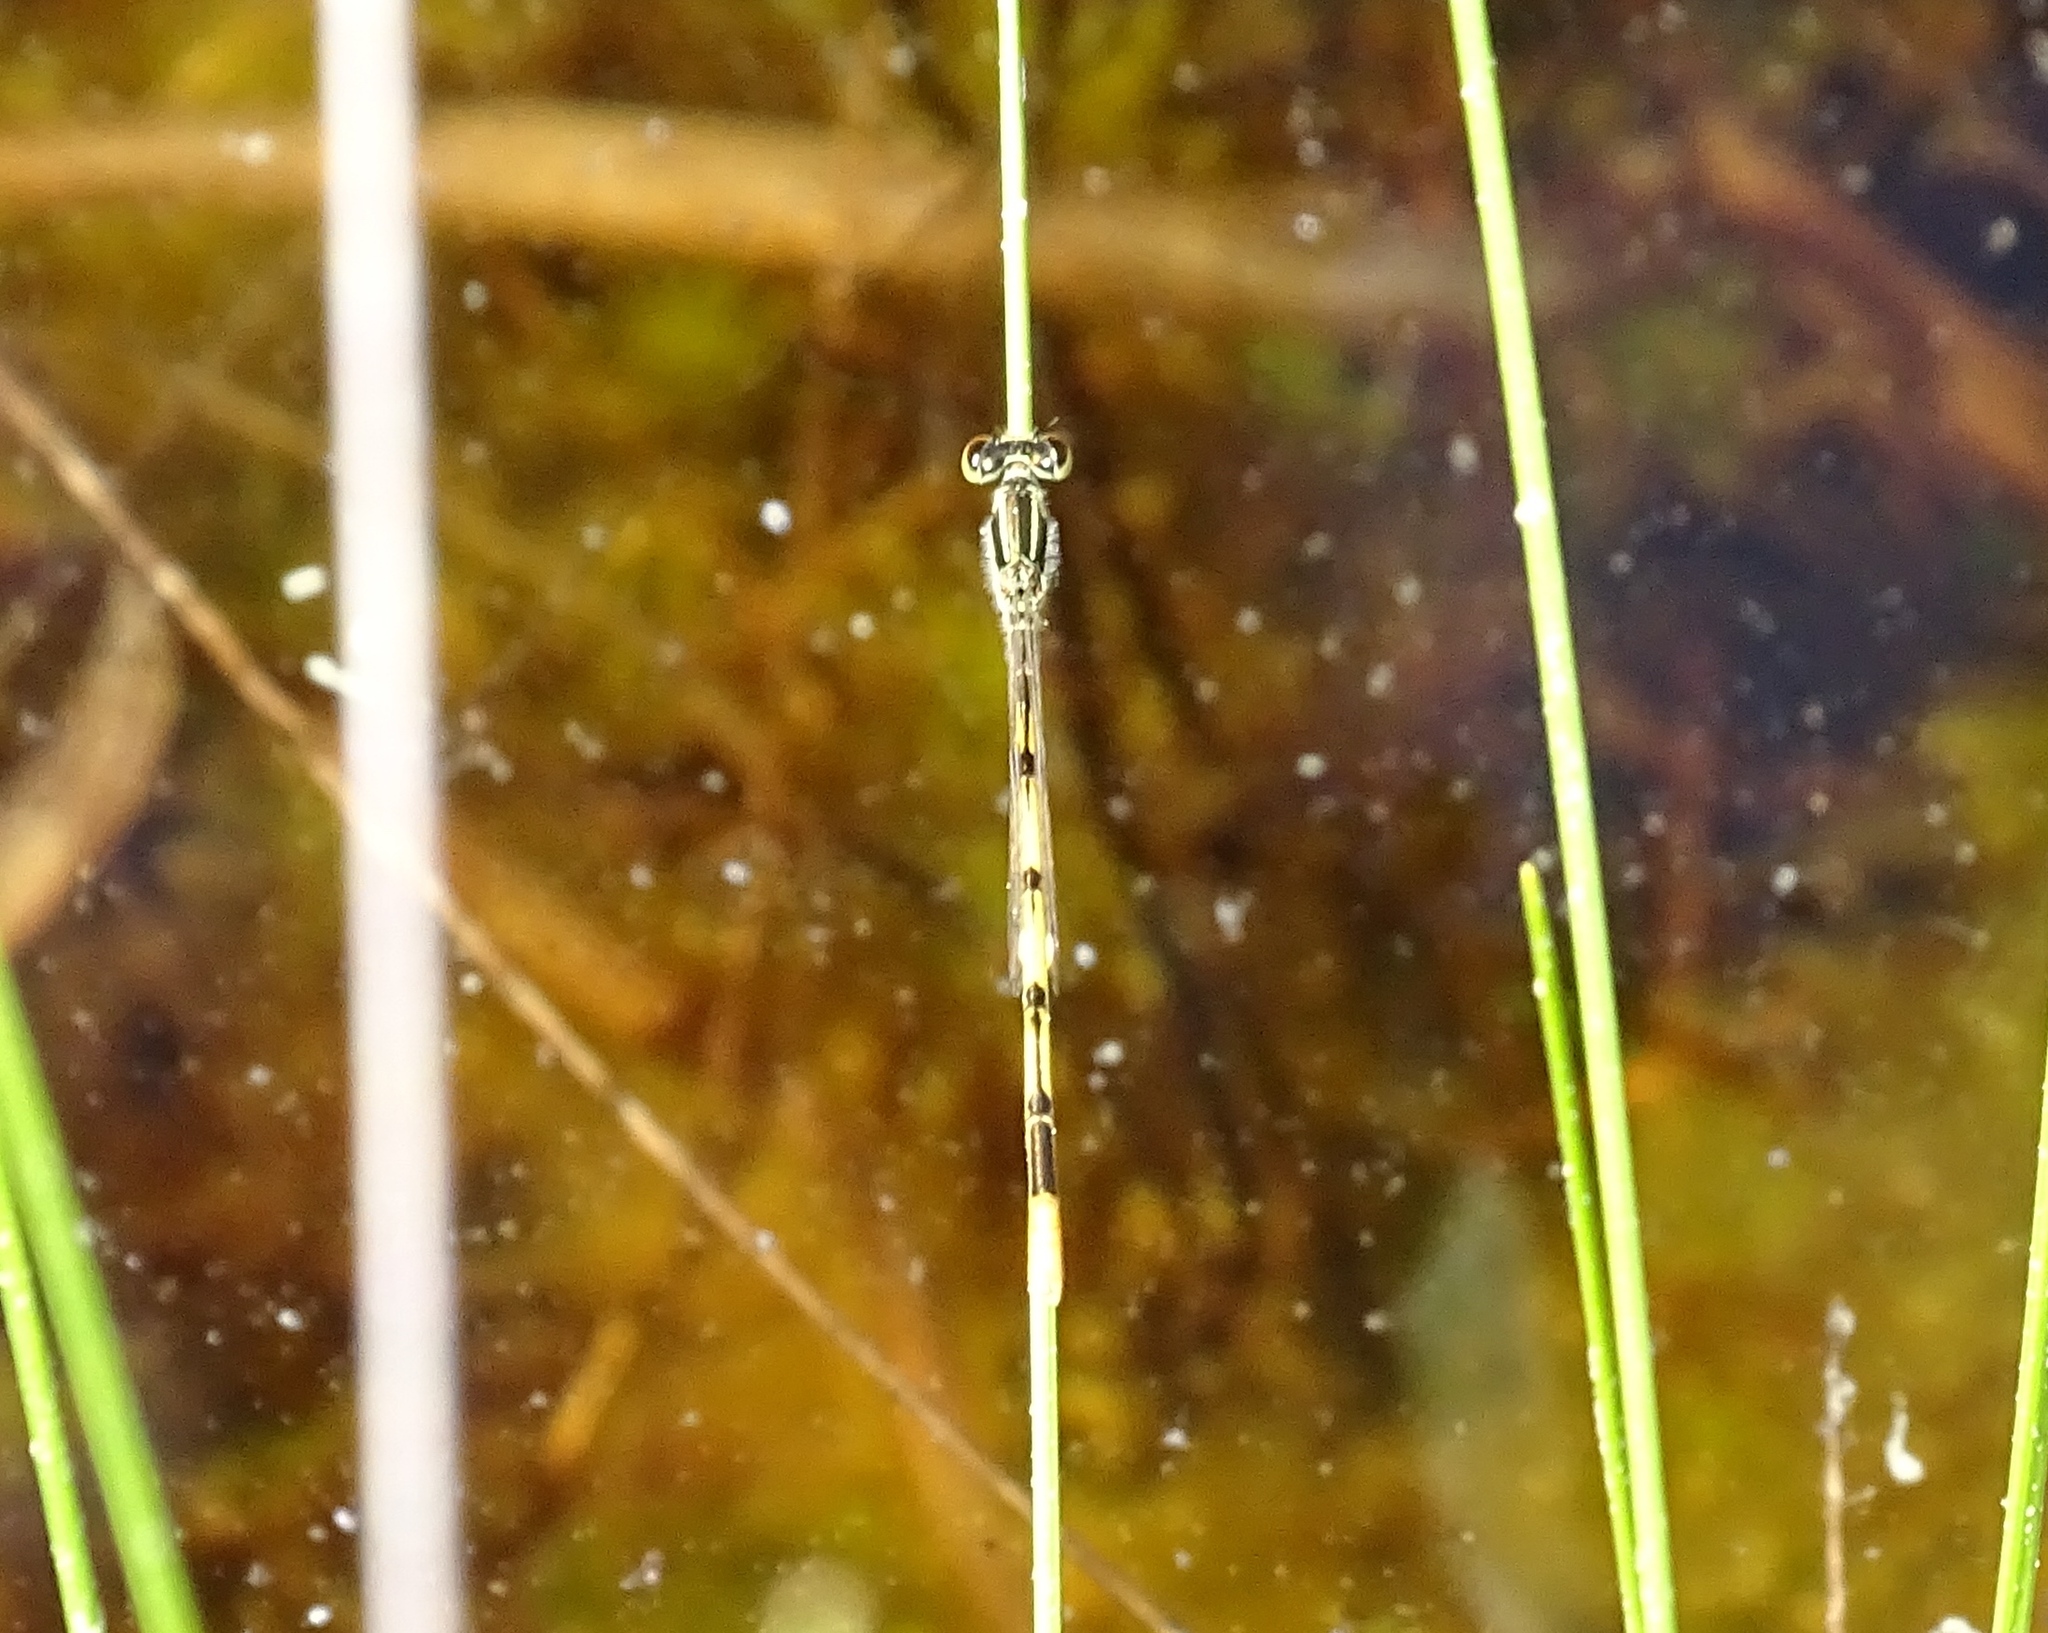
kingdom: Animalia
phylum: Arthropoda
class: Insecta
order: Odonata
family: Coenagrionidae
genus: Ischnura
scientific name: Ischnura hastata
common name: Citrine forktail
